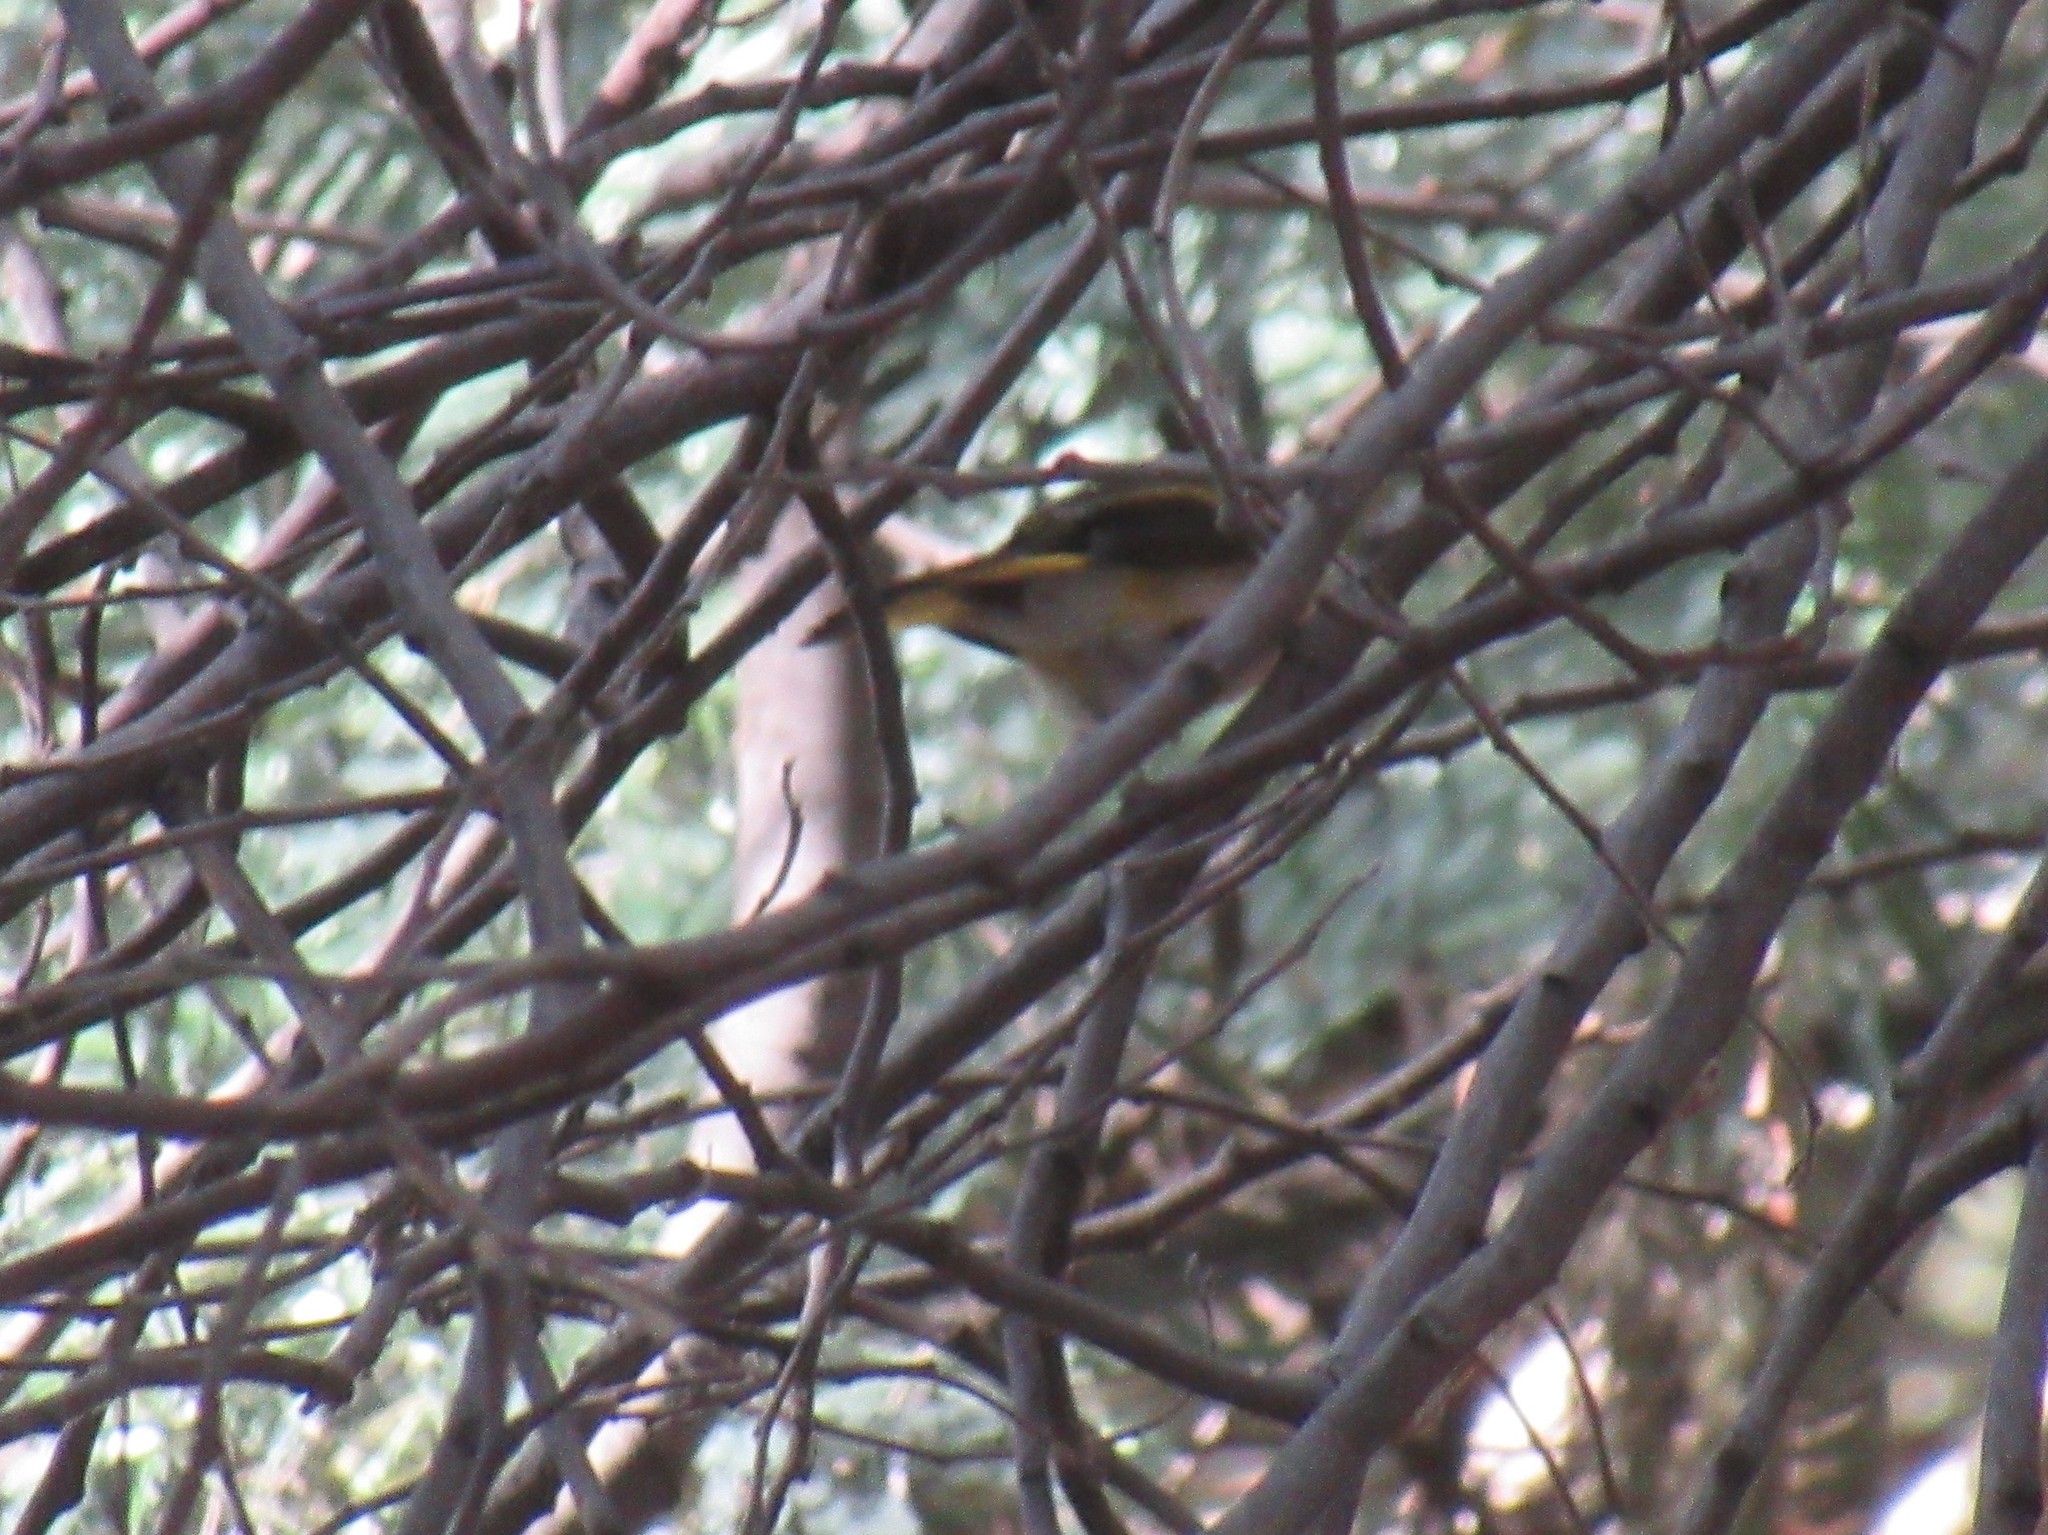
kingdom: Animalia
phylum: Chordata
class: Aves
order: Passeriformes
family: Parulidae
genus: Setophaga
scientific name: Setophaga ruticilla
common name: American redstart
